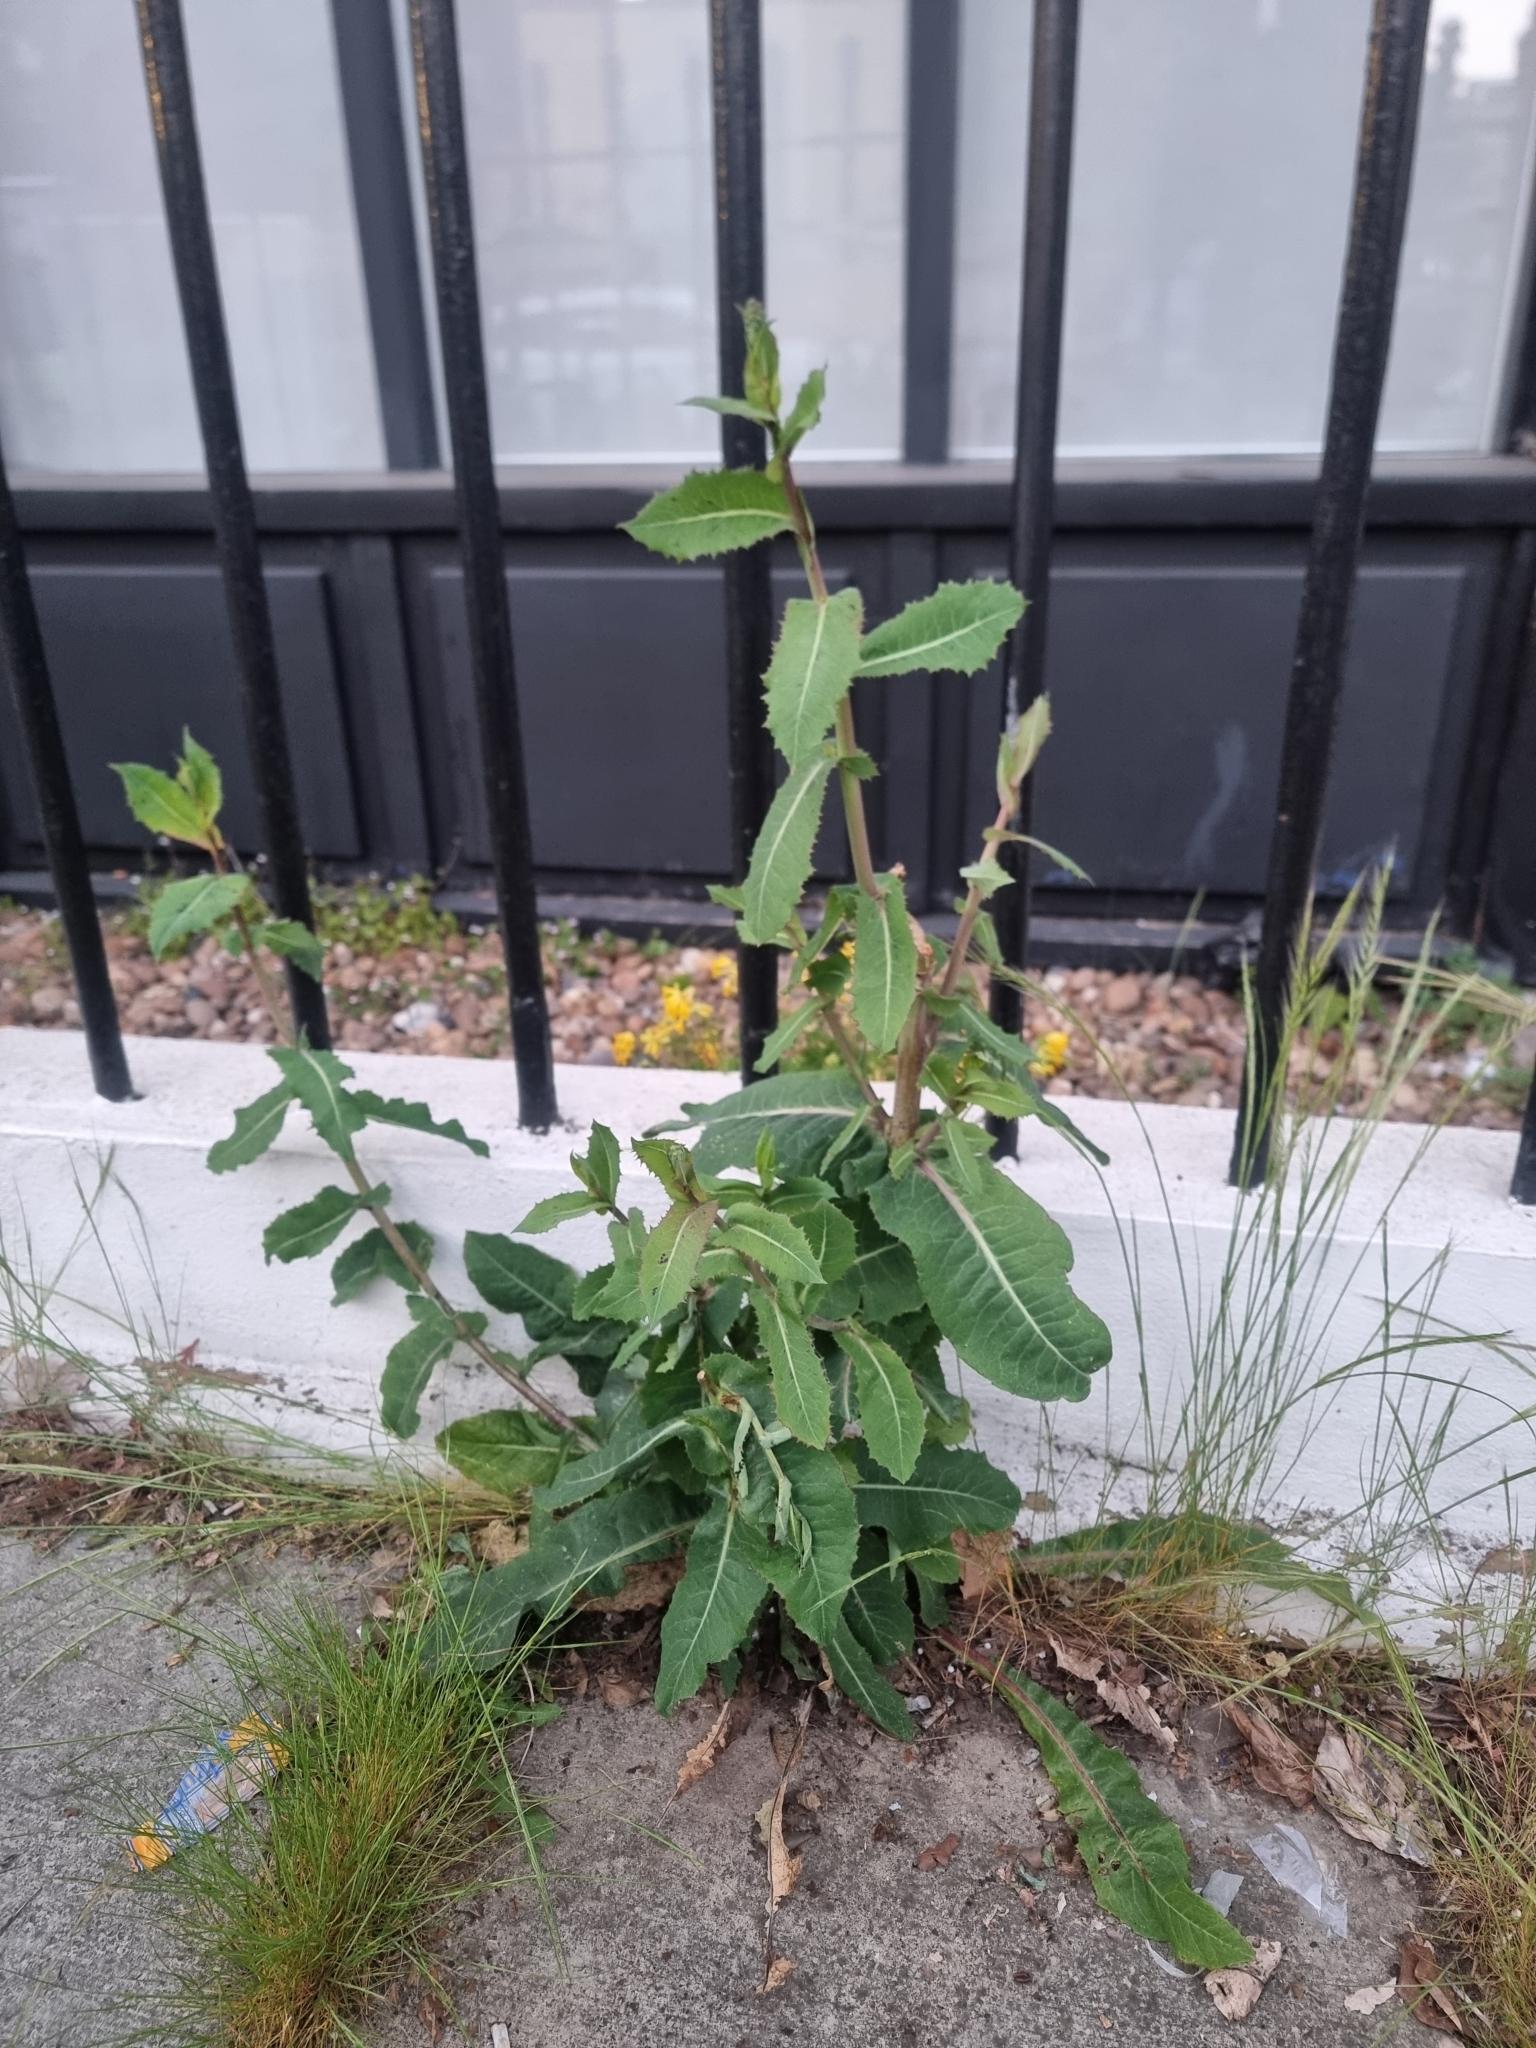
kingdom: Plantae
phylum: Tracheophyta
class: Magnoliopsida
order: Asterales
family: Asteraceae
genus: Lactuca
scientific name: Lactuca serriola
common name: Prickly lettuce
